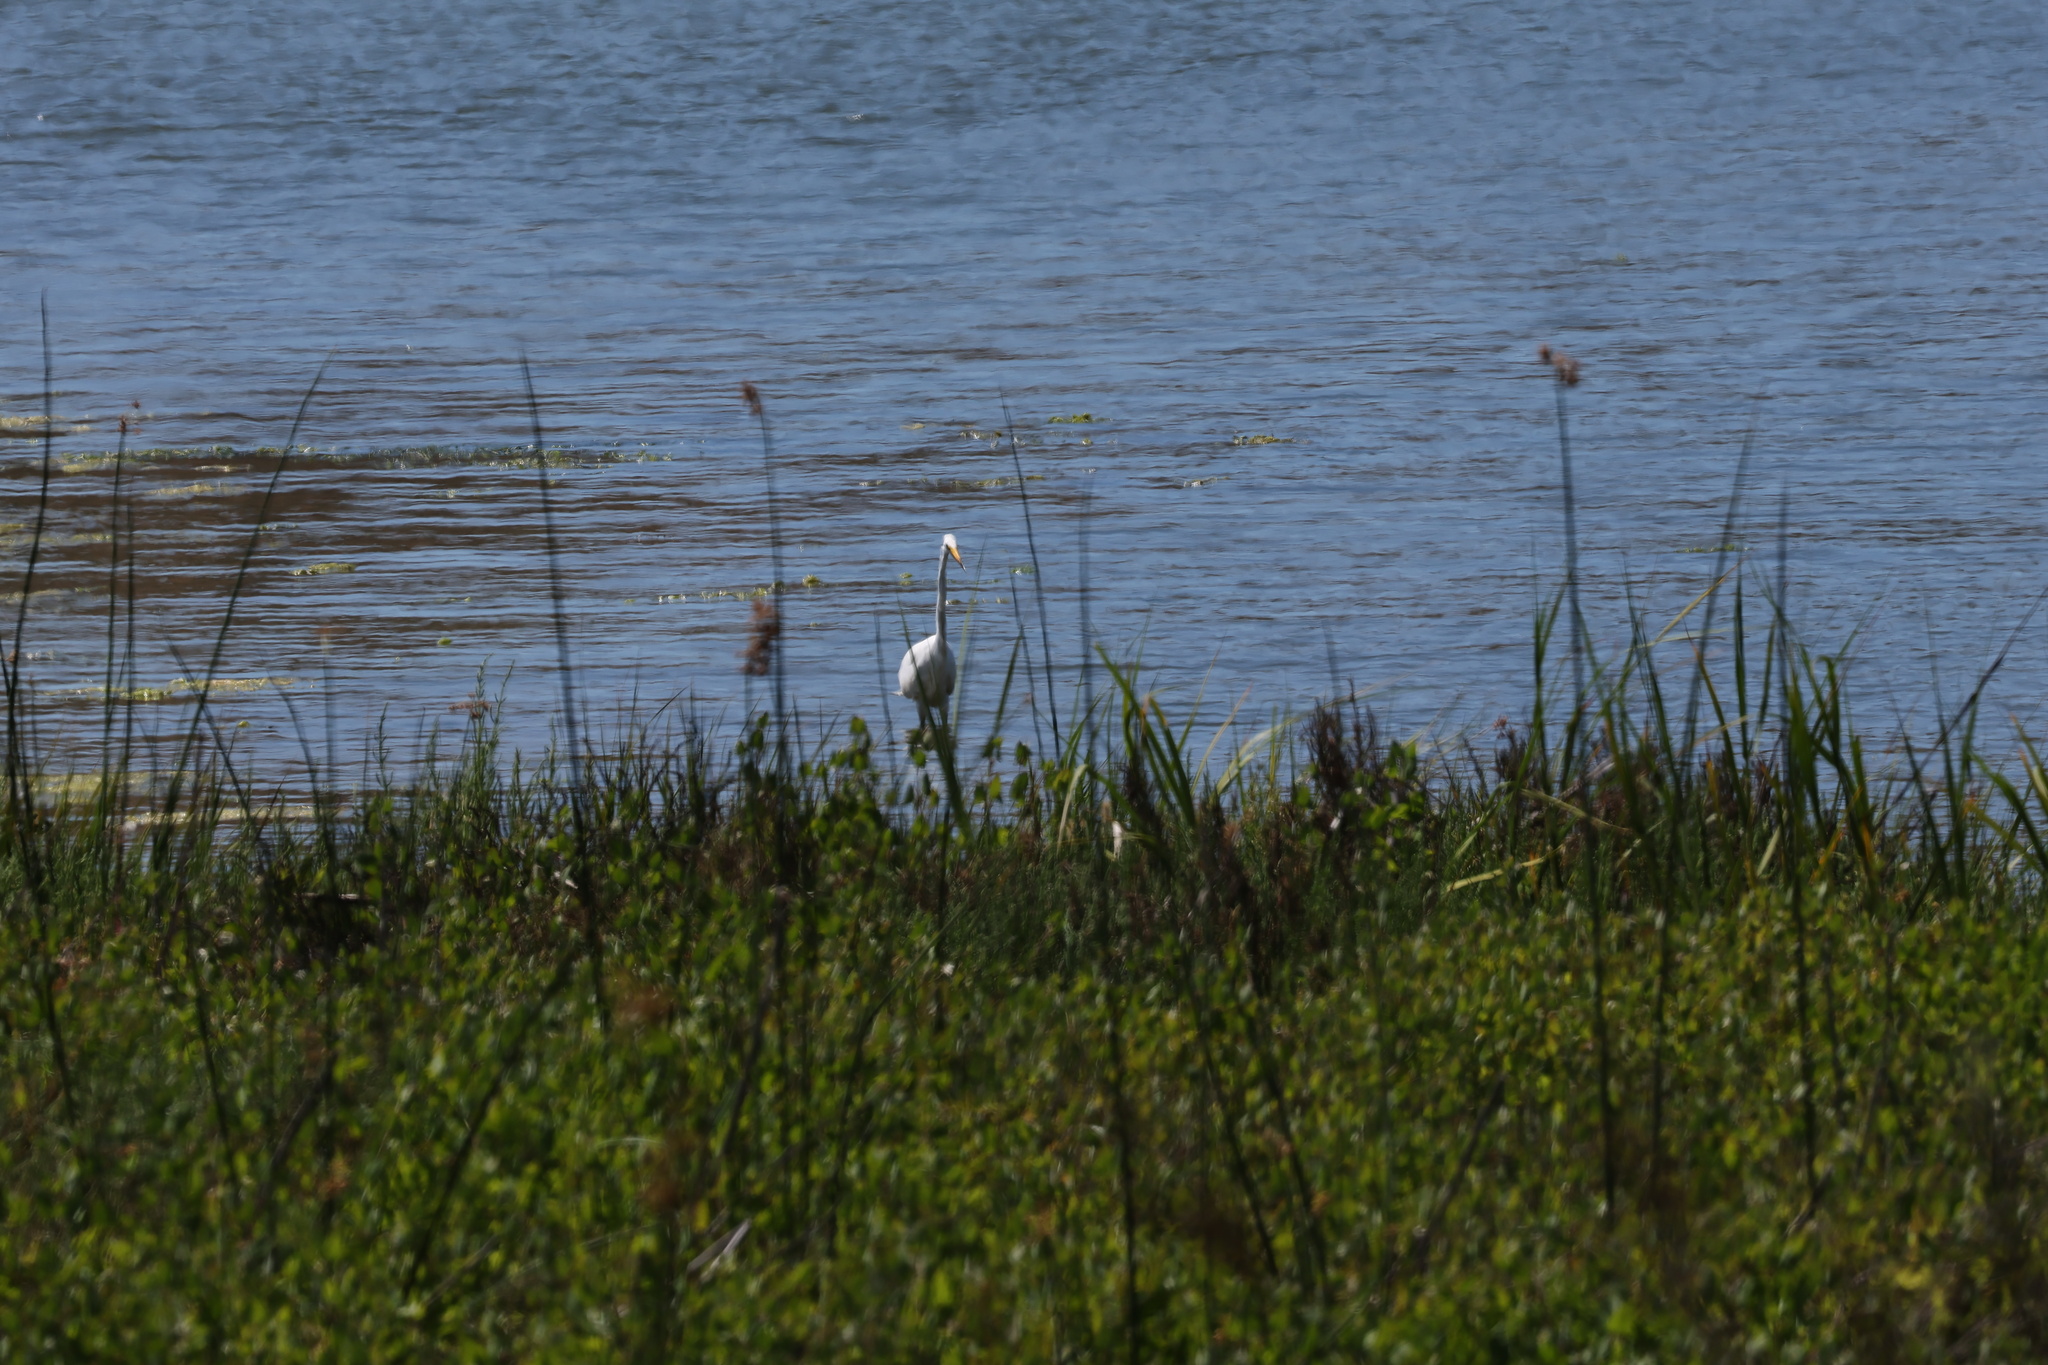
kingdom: Animalia
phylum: Chordata
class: Aves
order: Pelecaniformes
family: Ardeidae
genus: Ardea
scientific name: Ardea alba
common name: Great egret
